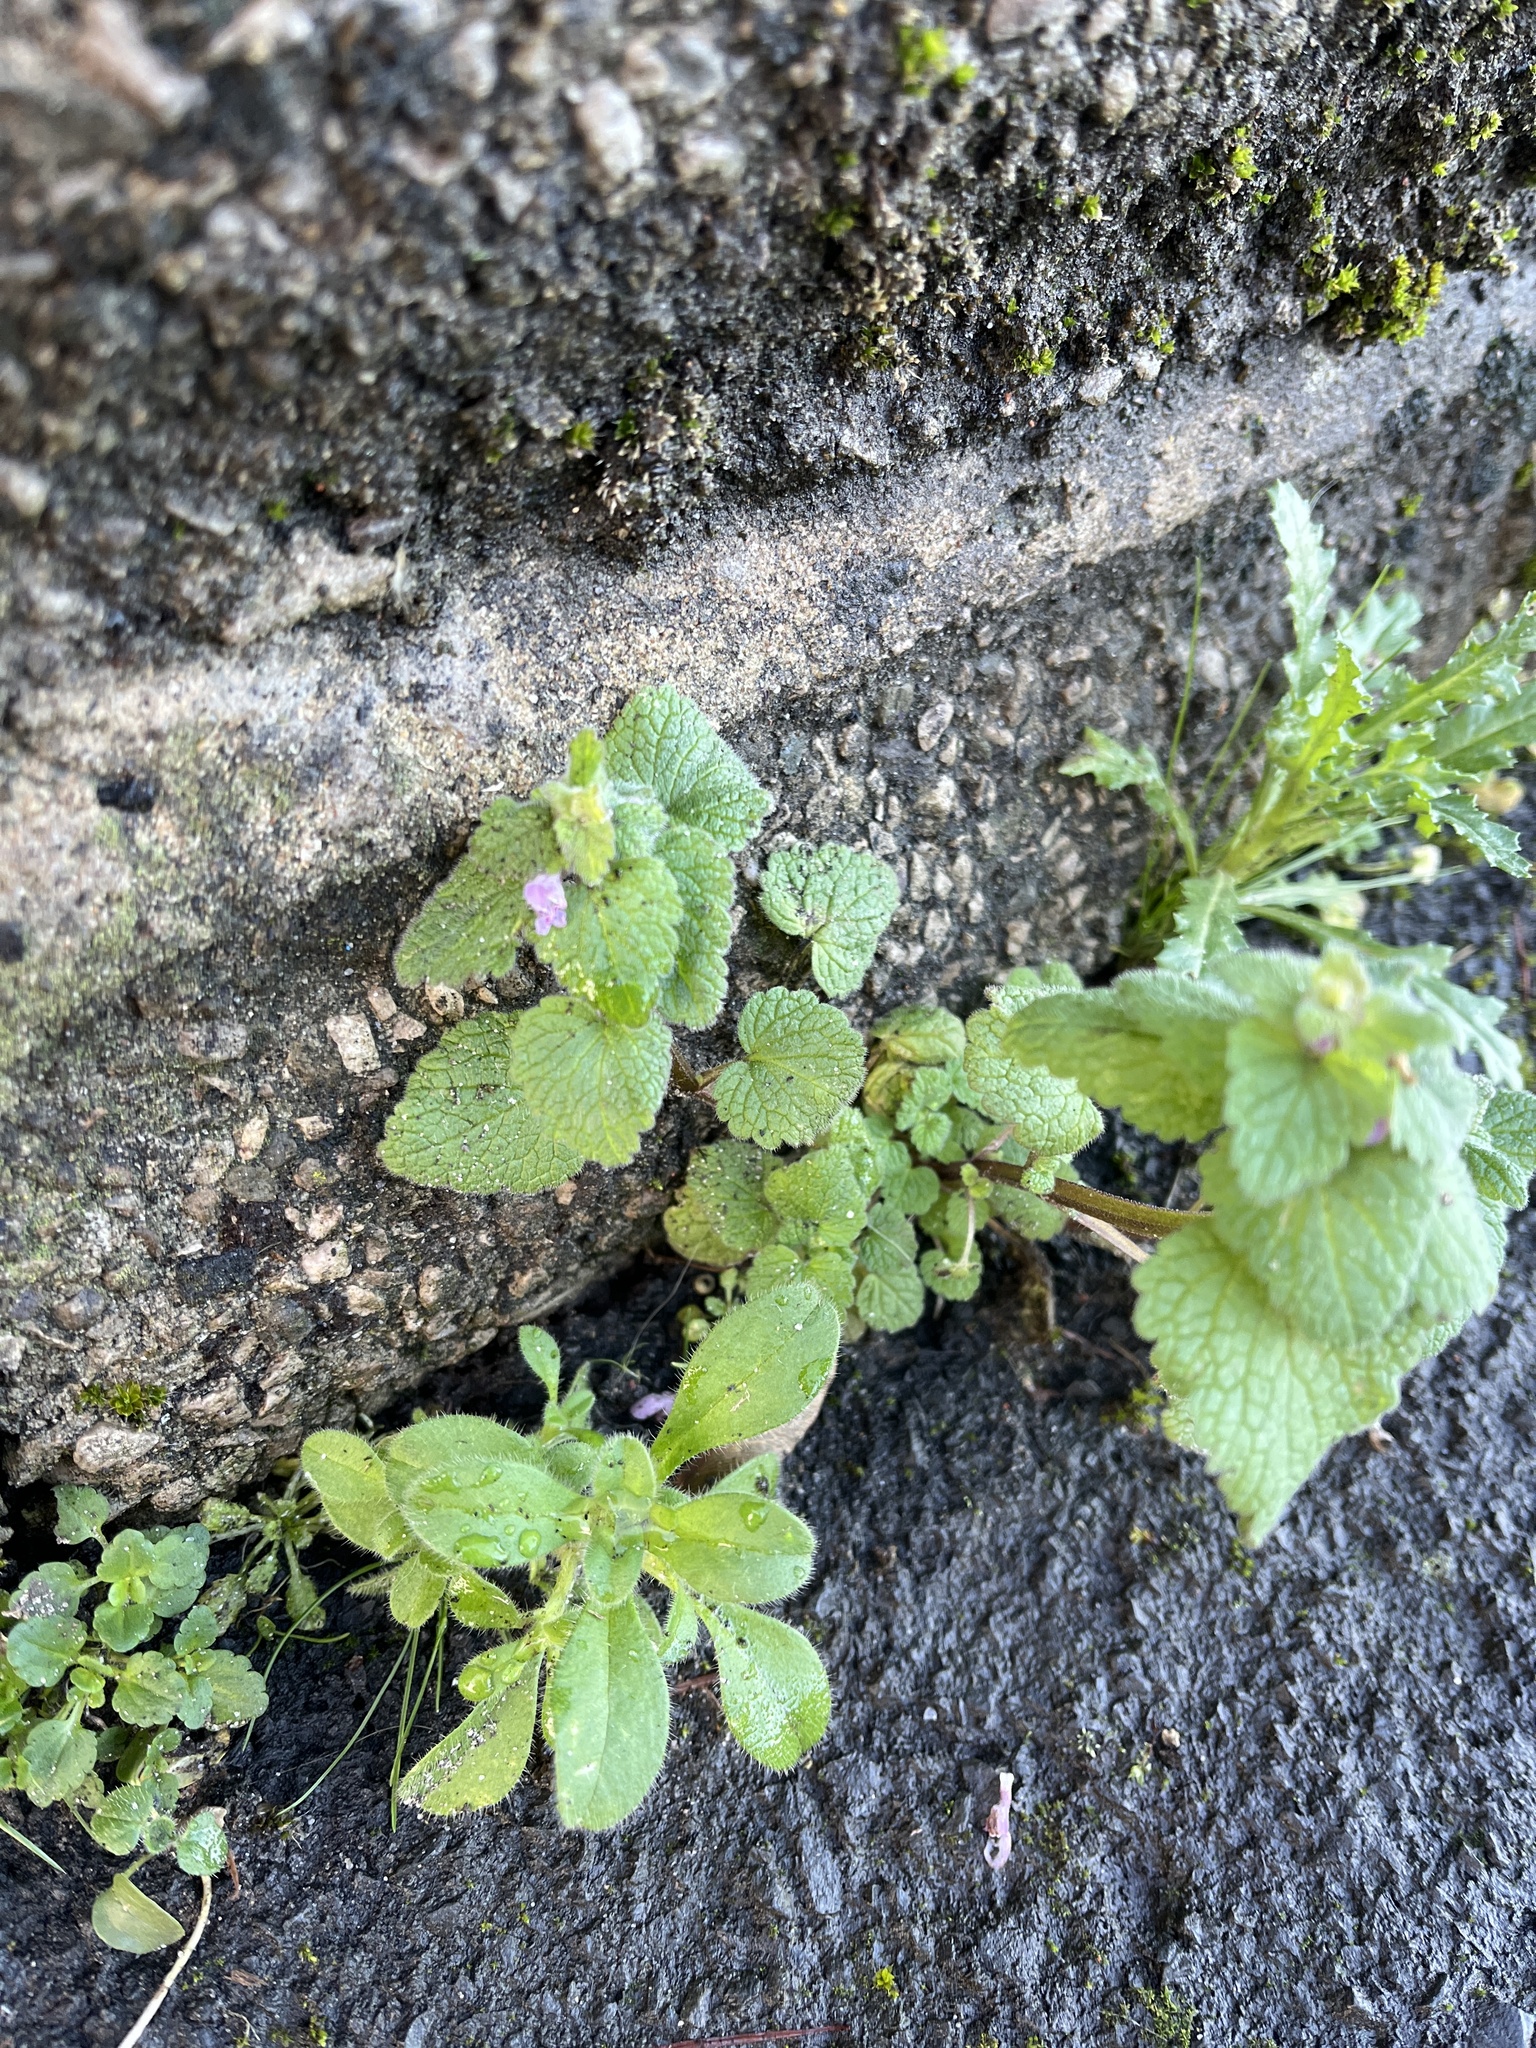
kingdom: Plantae
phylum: Tracheophyta
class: Magnoliopsida
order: Lamiales
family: Lamiaceae
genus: Lamium
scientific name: Lamium purpureum
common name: Red dead-nettle
